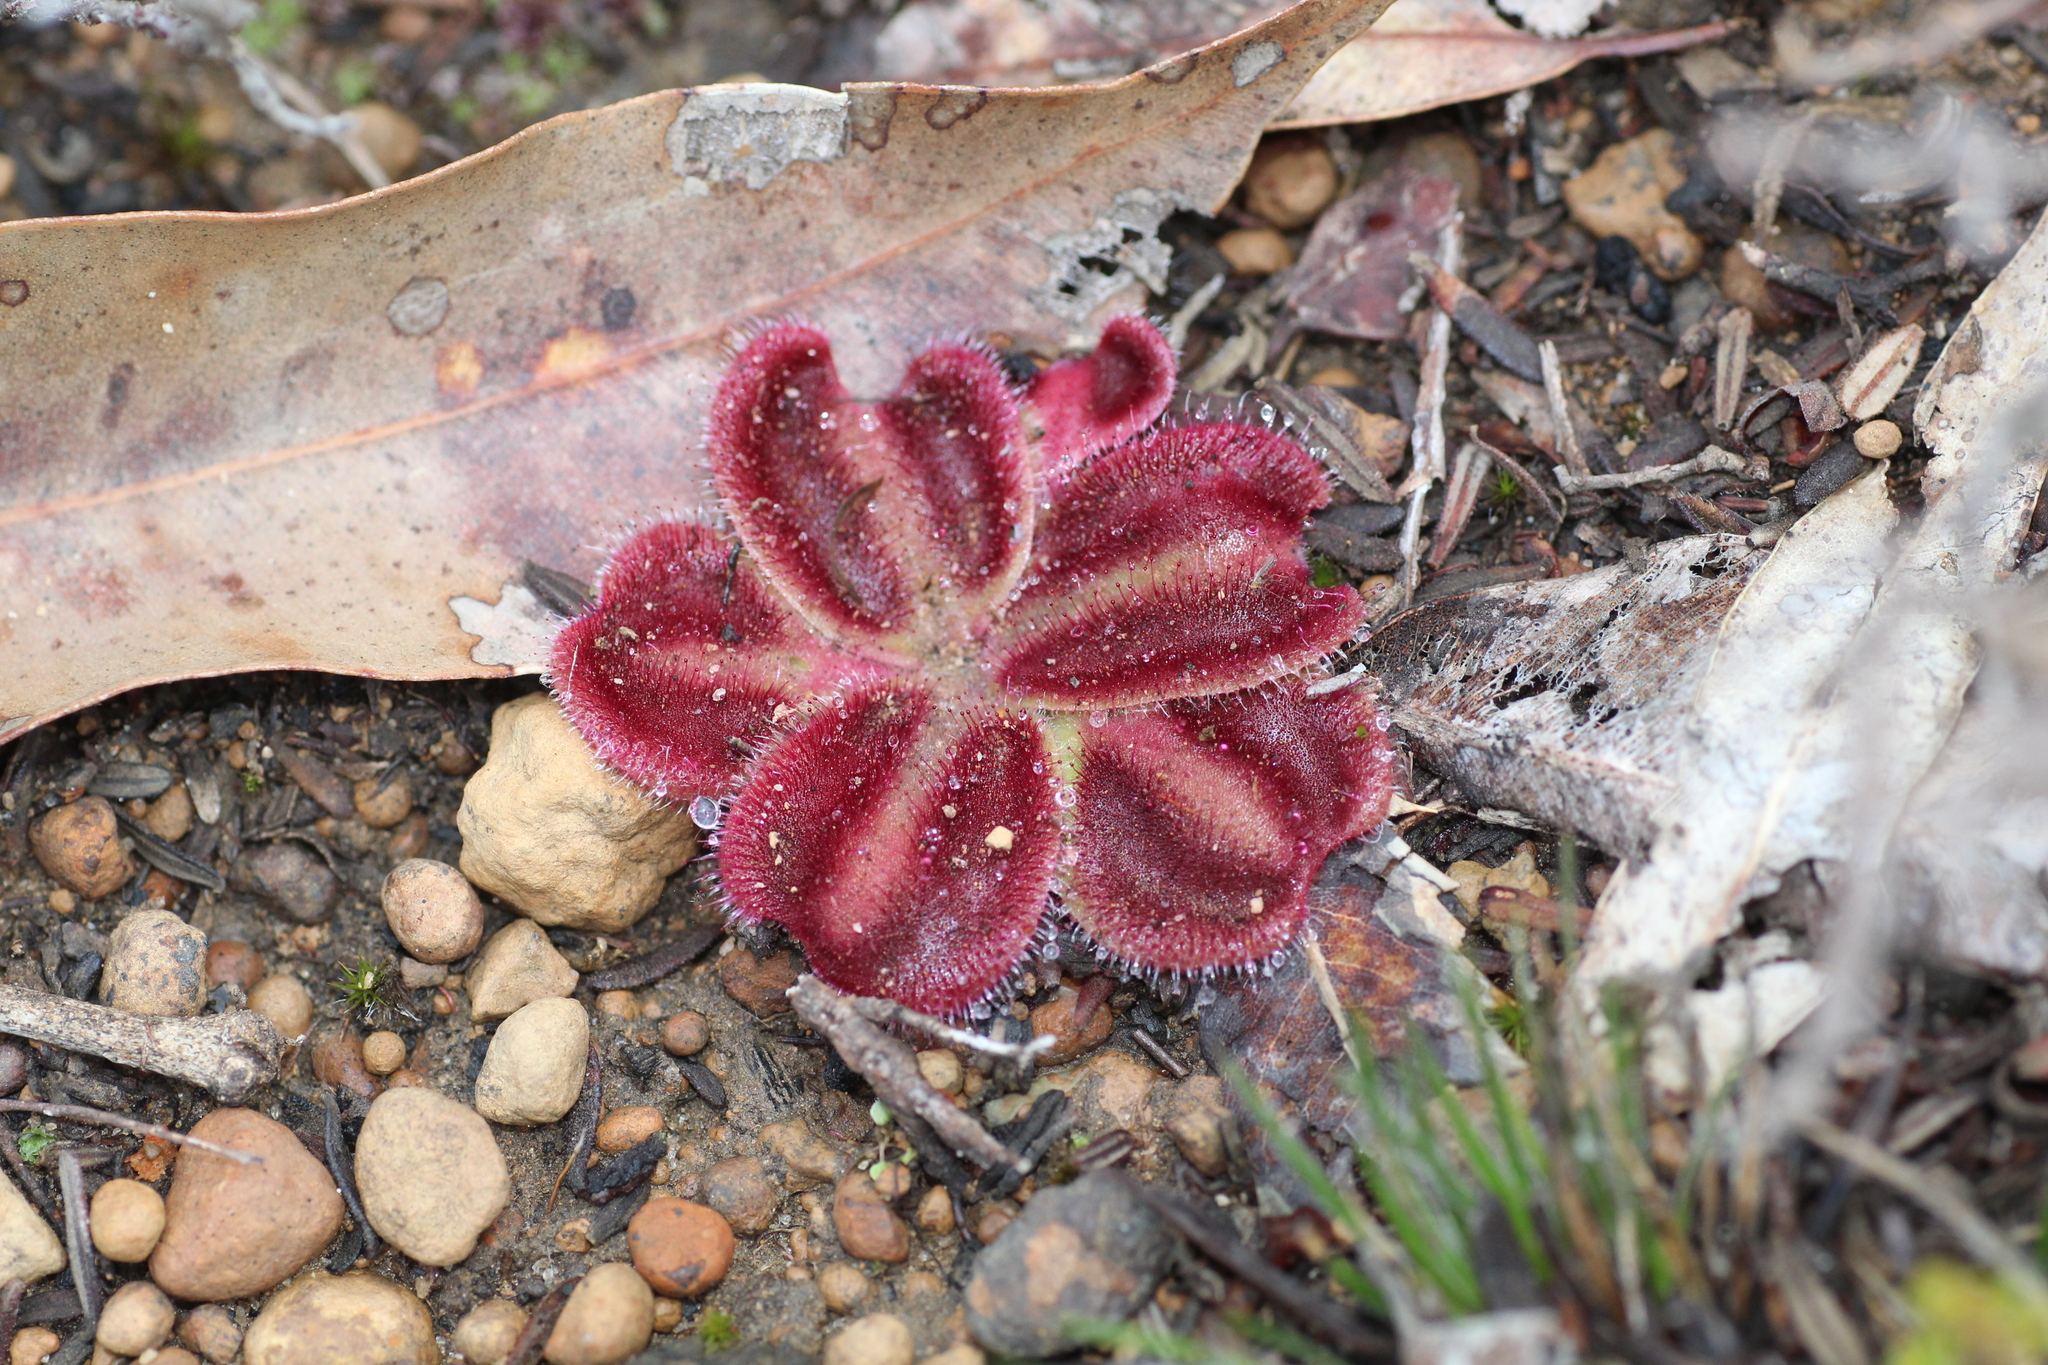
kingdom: Plantae
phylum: Tracheophyta
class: Magnoliopsida
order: Caryophyllales
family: Droseraceae
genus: Drosera
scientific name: Drosera erythrorhiza
